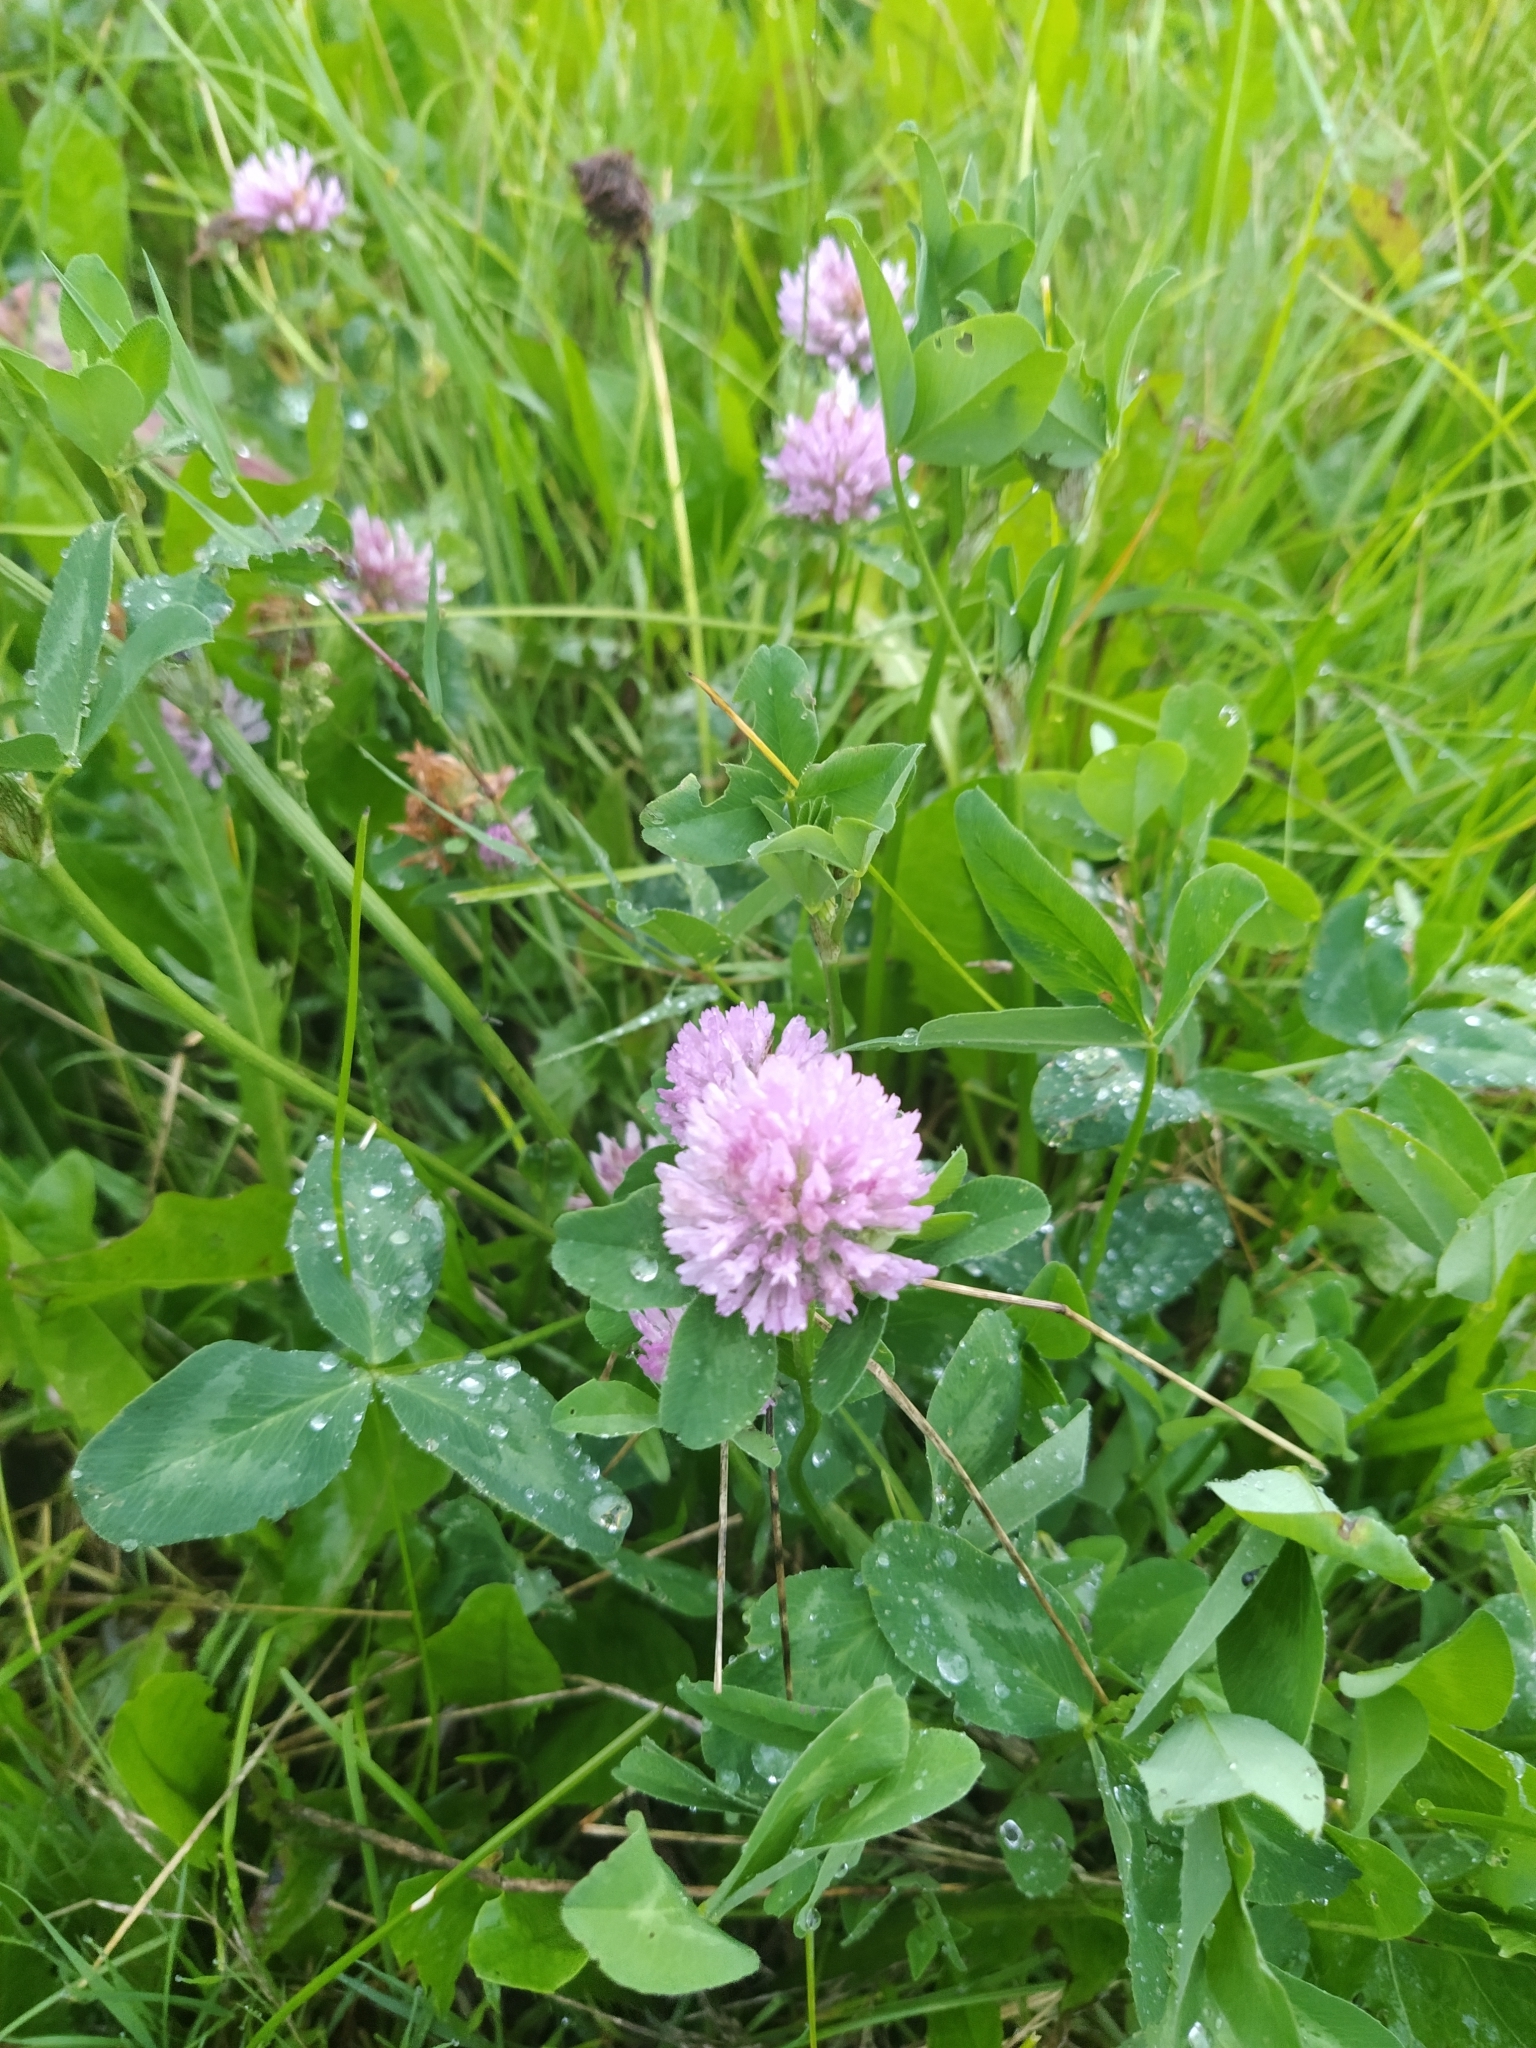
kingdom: Plantae
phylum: Tracheophyta
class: Magnoliopsida
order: Fabales
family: Fabaceae
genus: Trifolium
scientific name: Trifolium pratense
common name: Red clover
